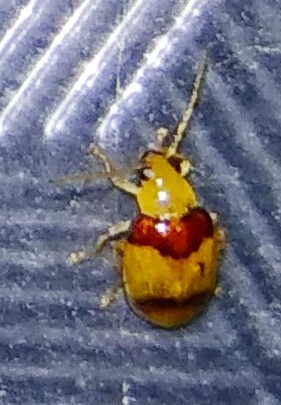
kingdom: Animalia
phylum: Arthropoda
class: Insecta
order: Coleoptera
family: Chrysomelidae
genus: Monolepta
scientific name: Monolepta
